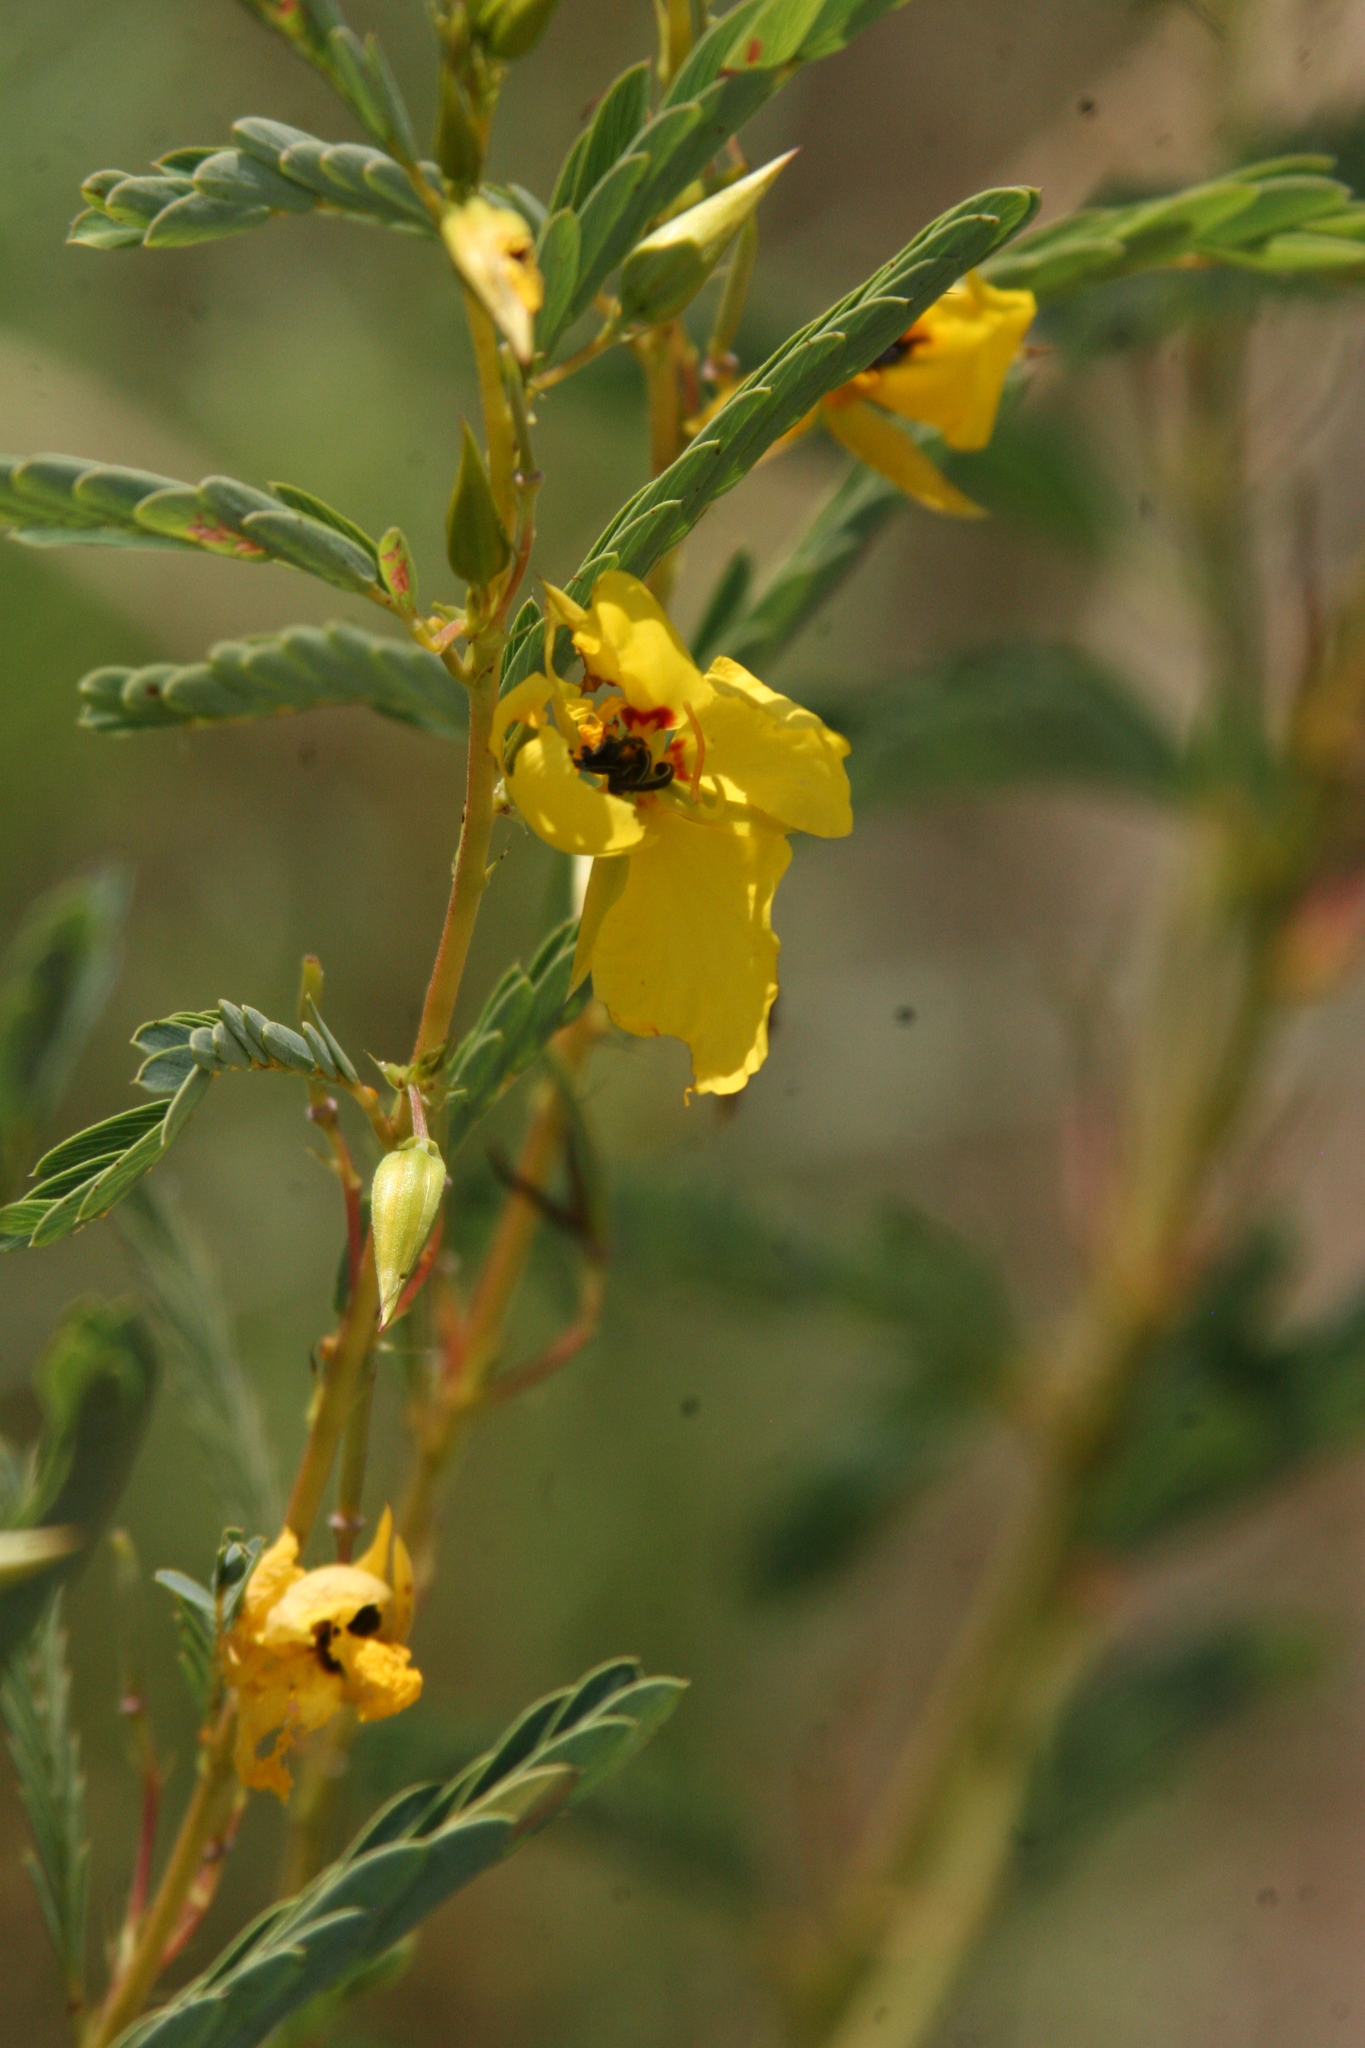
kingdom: Plantae
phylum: Tracheophyta
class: Magnoliopsida
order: Fabales
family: Fabaceae
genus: Chamaecrista
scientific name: Chamaecrista fasciculata
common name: Golden cassia
